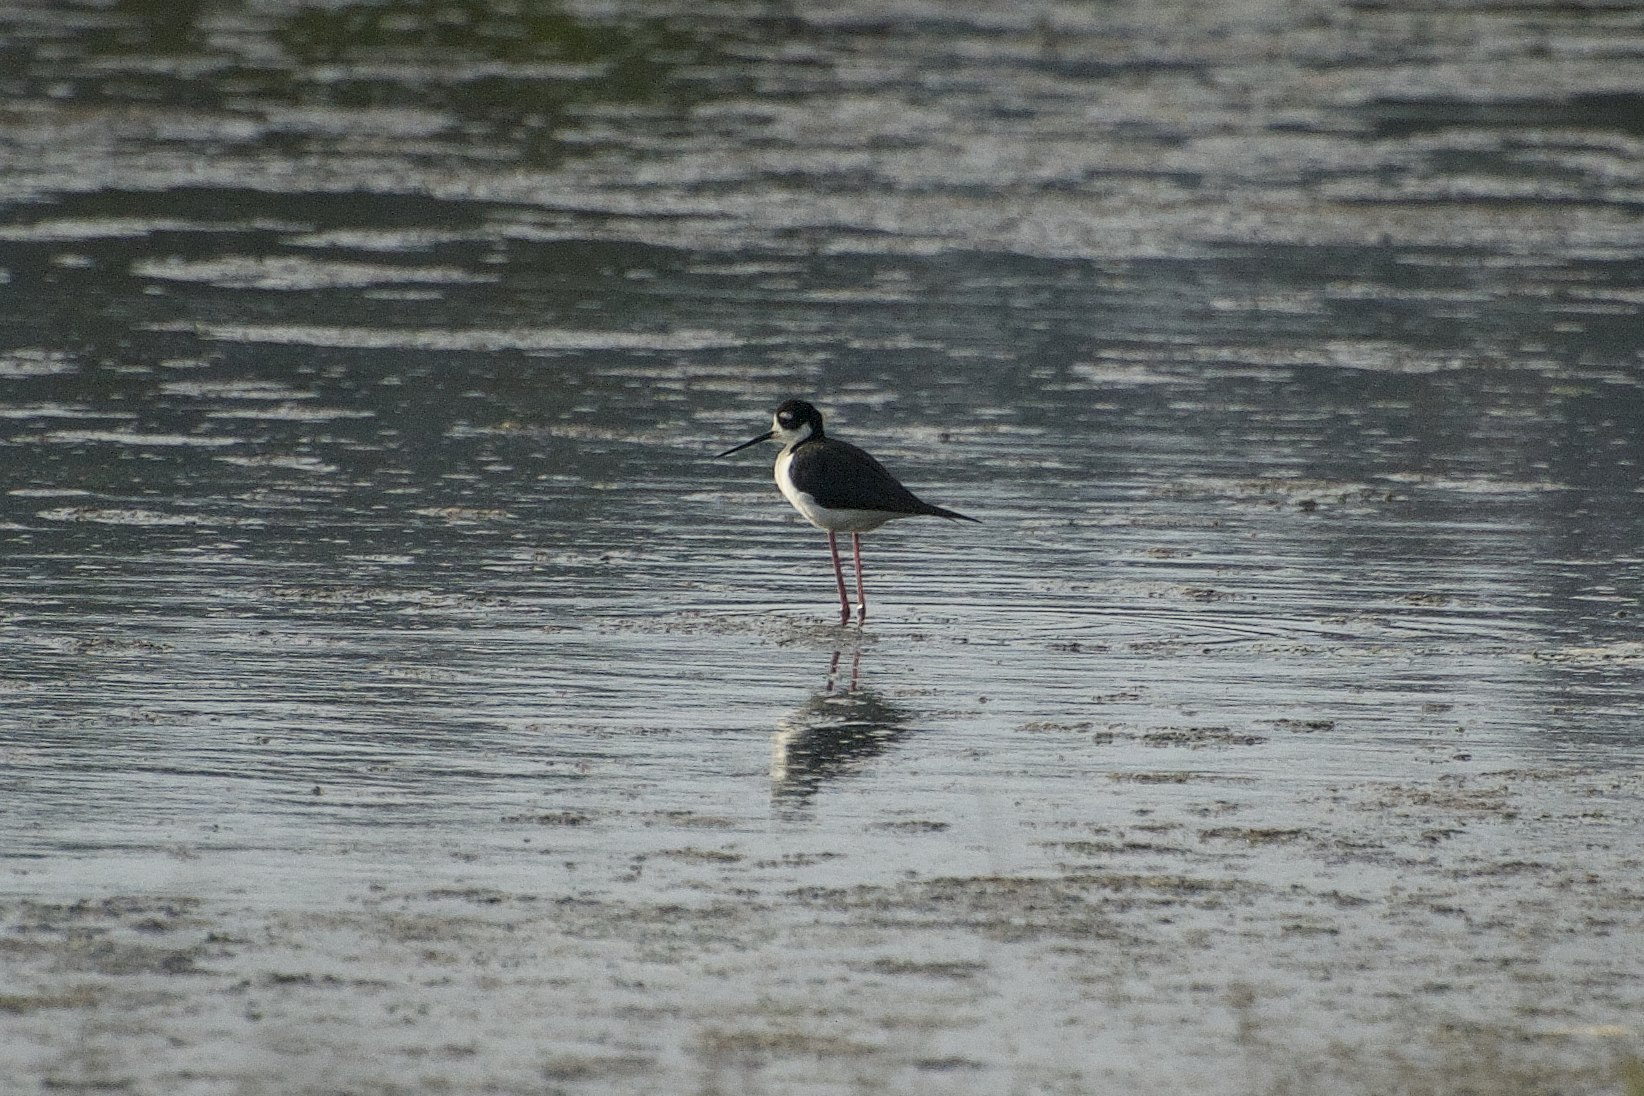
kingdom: Animalia
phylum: Chordata
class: Aves
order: Charadriiformes
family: Recurvirostridae
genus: Himantopus
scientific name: Himantopus mexicanus
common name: Black-necked stilt
